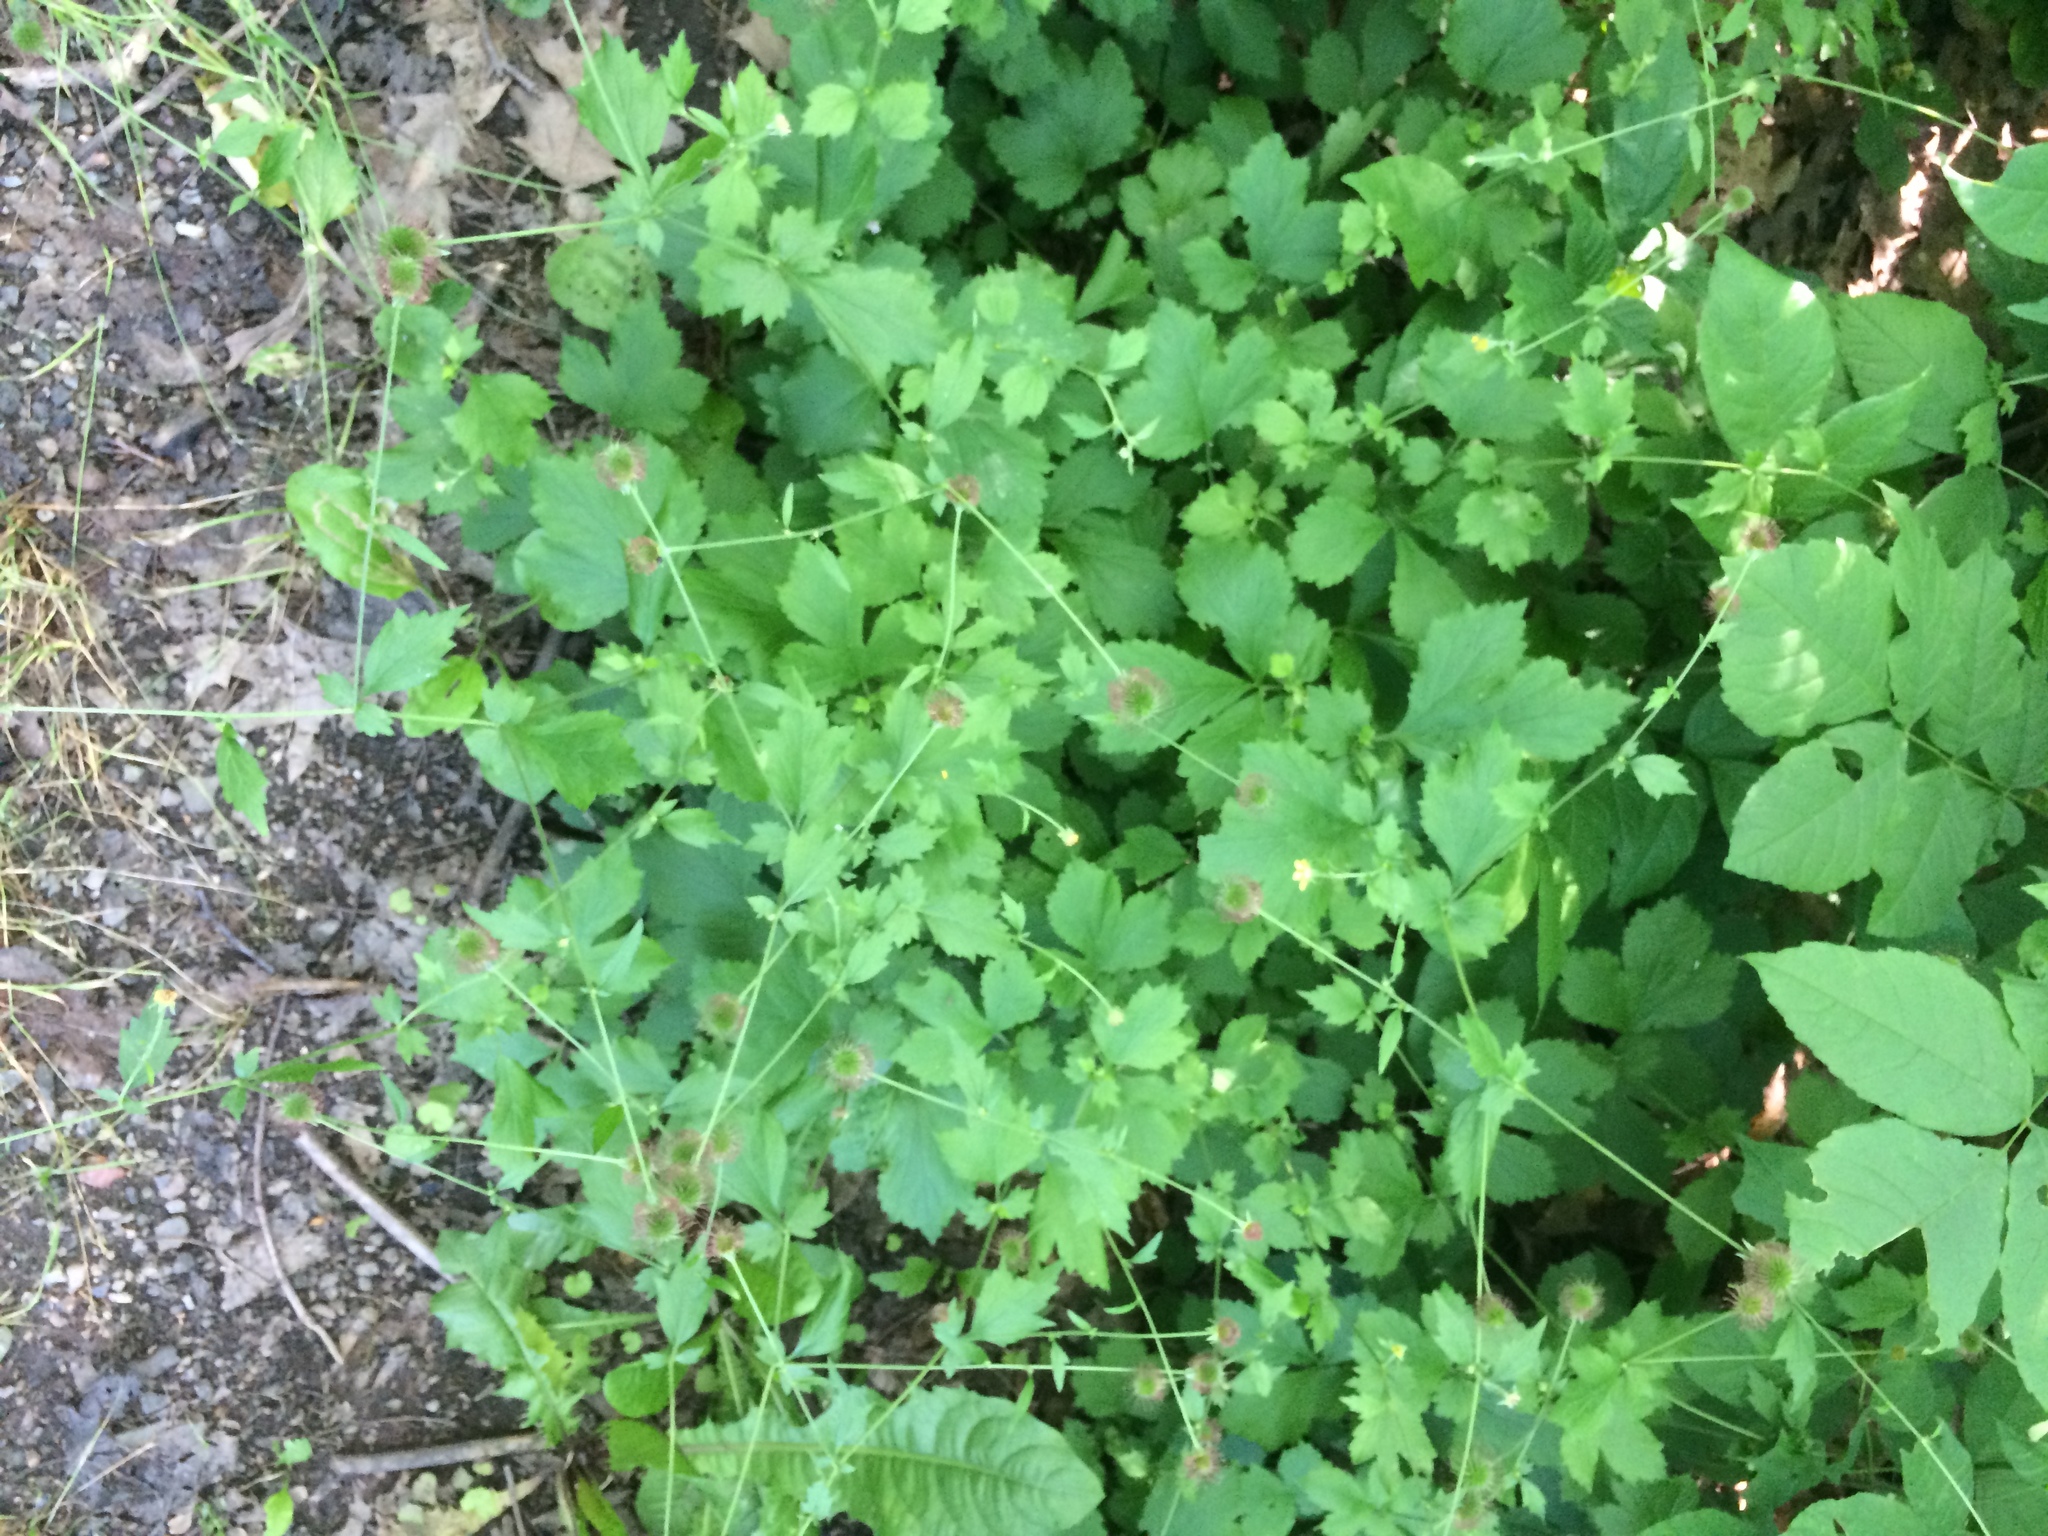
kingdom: Plantae
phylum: Tracheophyta
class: Magnoliopsida
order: Rosales
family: Rosaceae
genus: Geum
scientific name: Geum urbanum
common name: Wood avens
